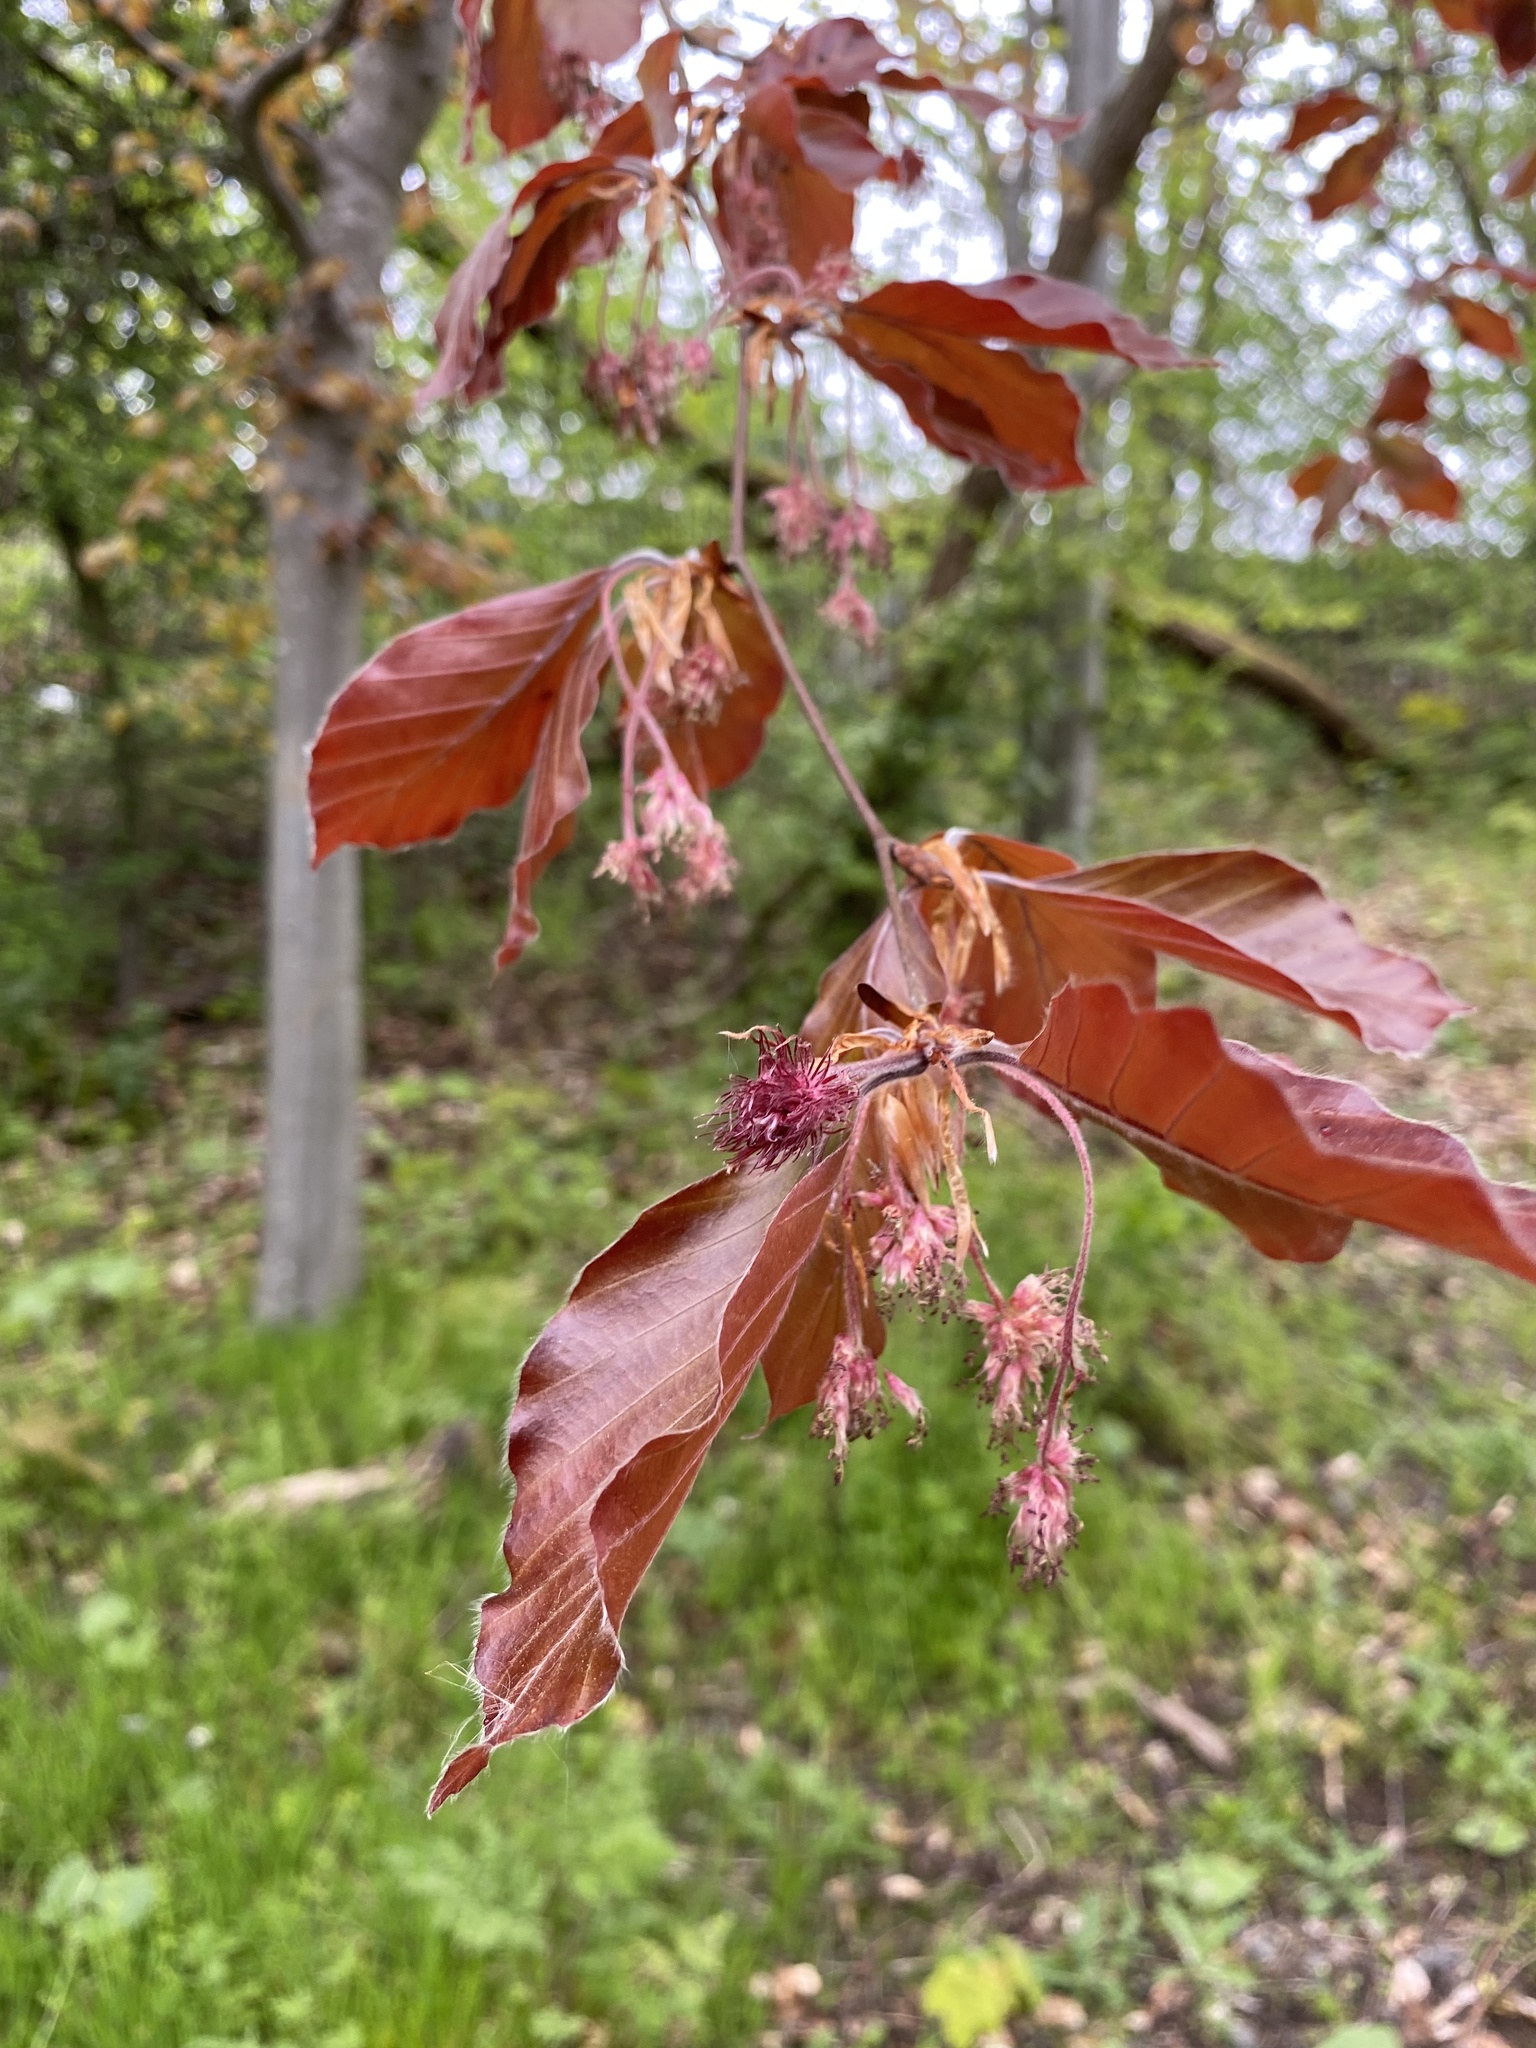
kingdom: Plantae
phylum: Tracheophyta
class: Magnoliopsida
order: Fagales
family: Fagaceae
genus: Fagus
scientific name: Fagus sylvatica
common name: Beech
